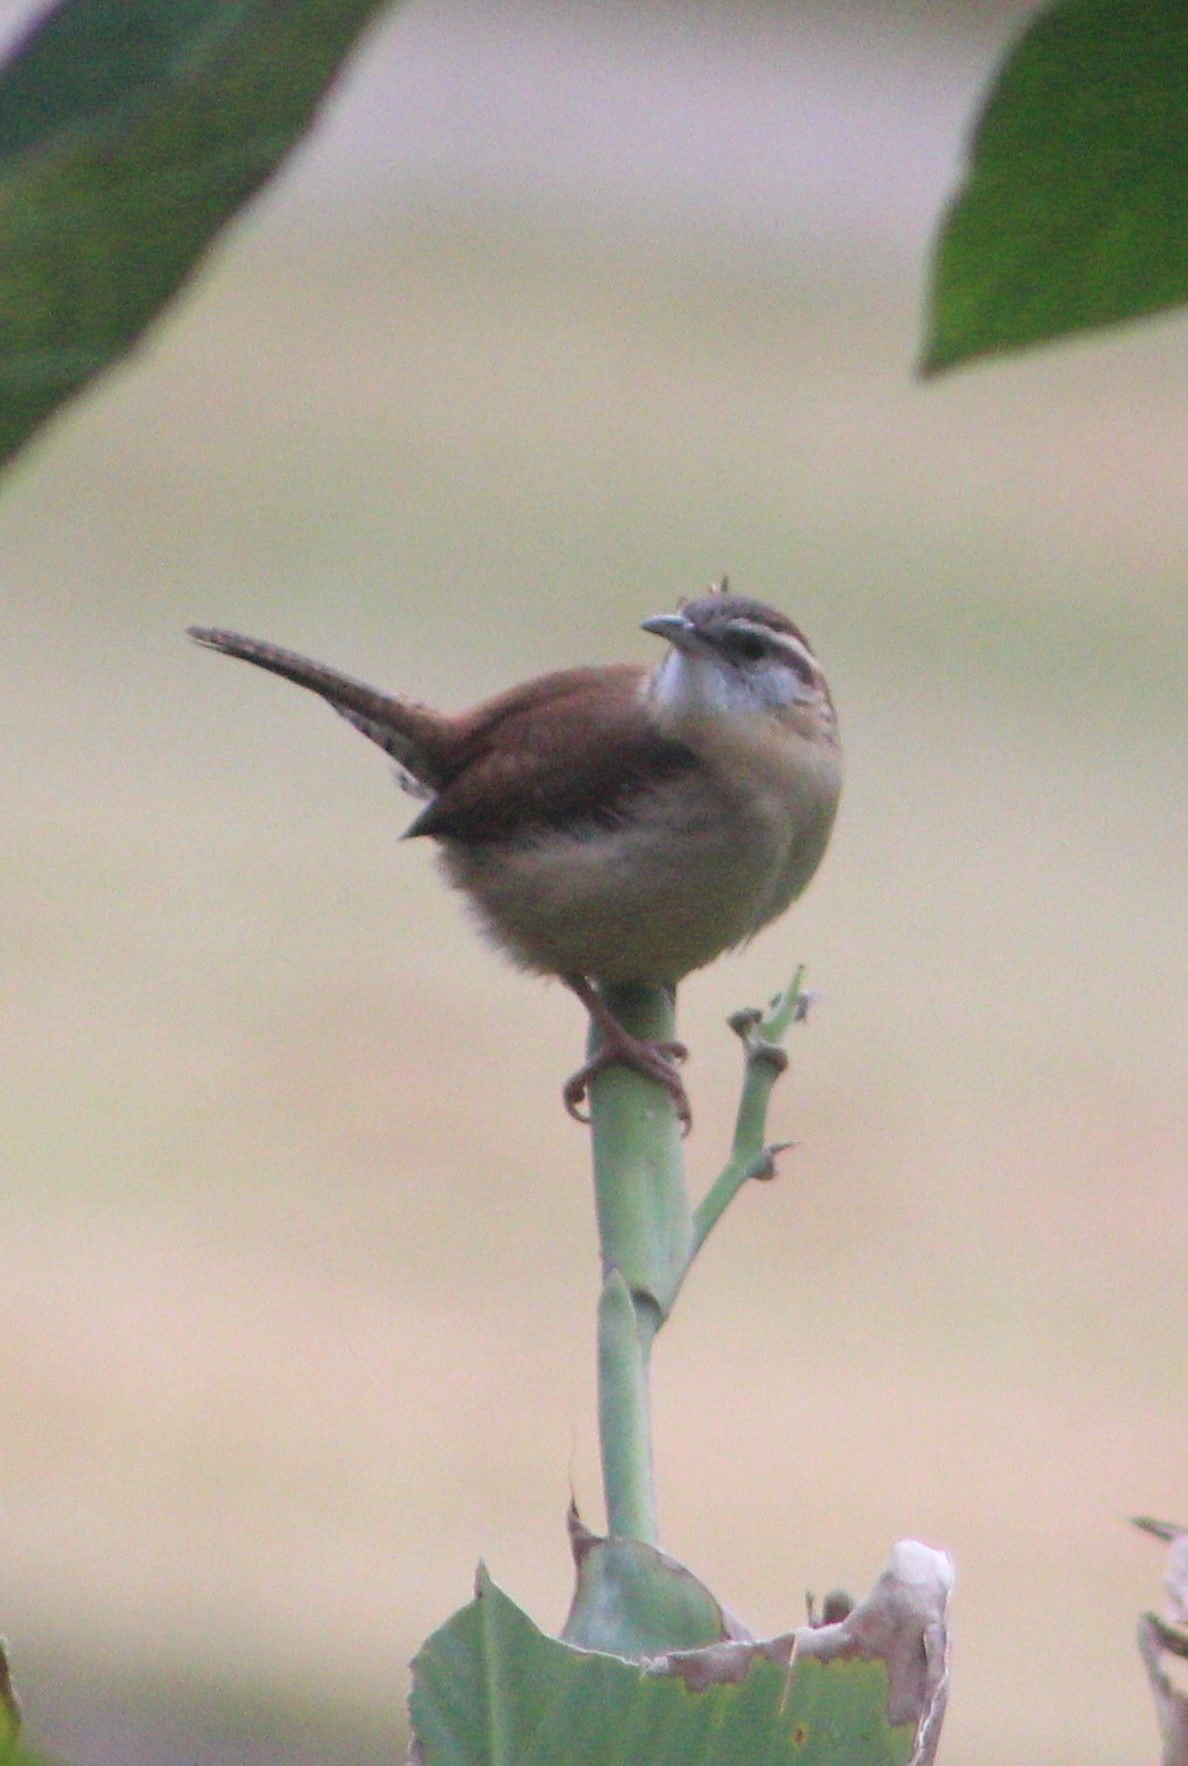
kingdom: Animalia
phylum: Chordata
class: Aves
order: Passeriformes
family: Troglodytidae
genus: Thryothorus
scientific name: Thryothorus ludovicianus
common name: Carolina wren
